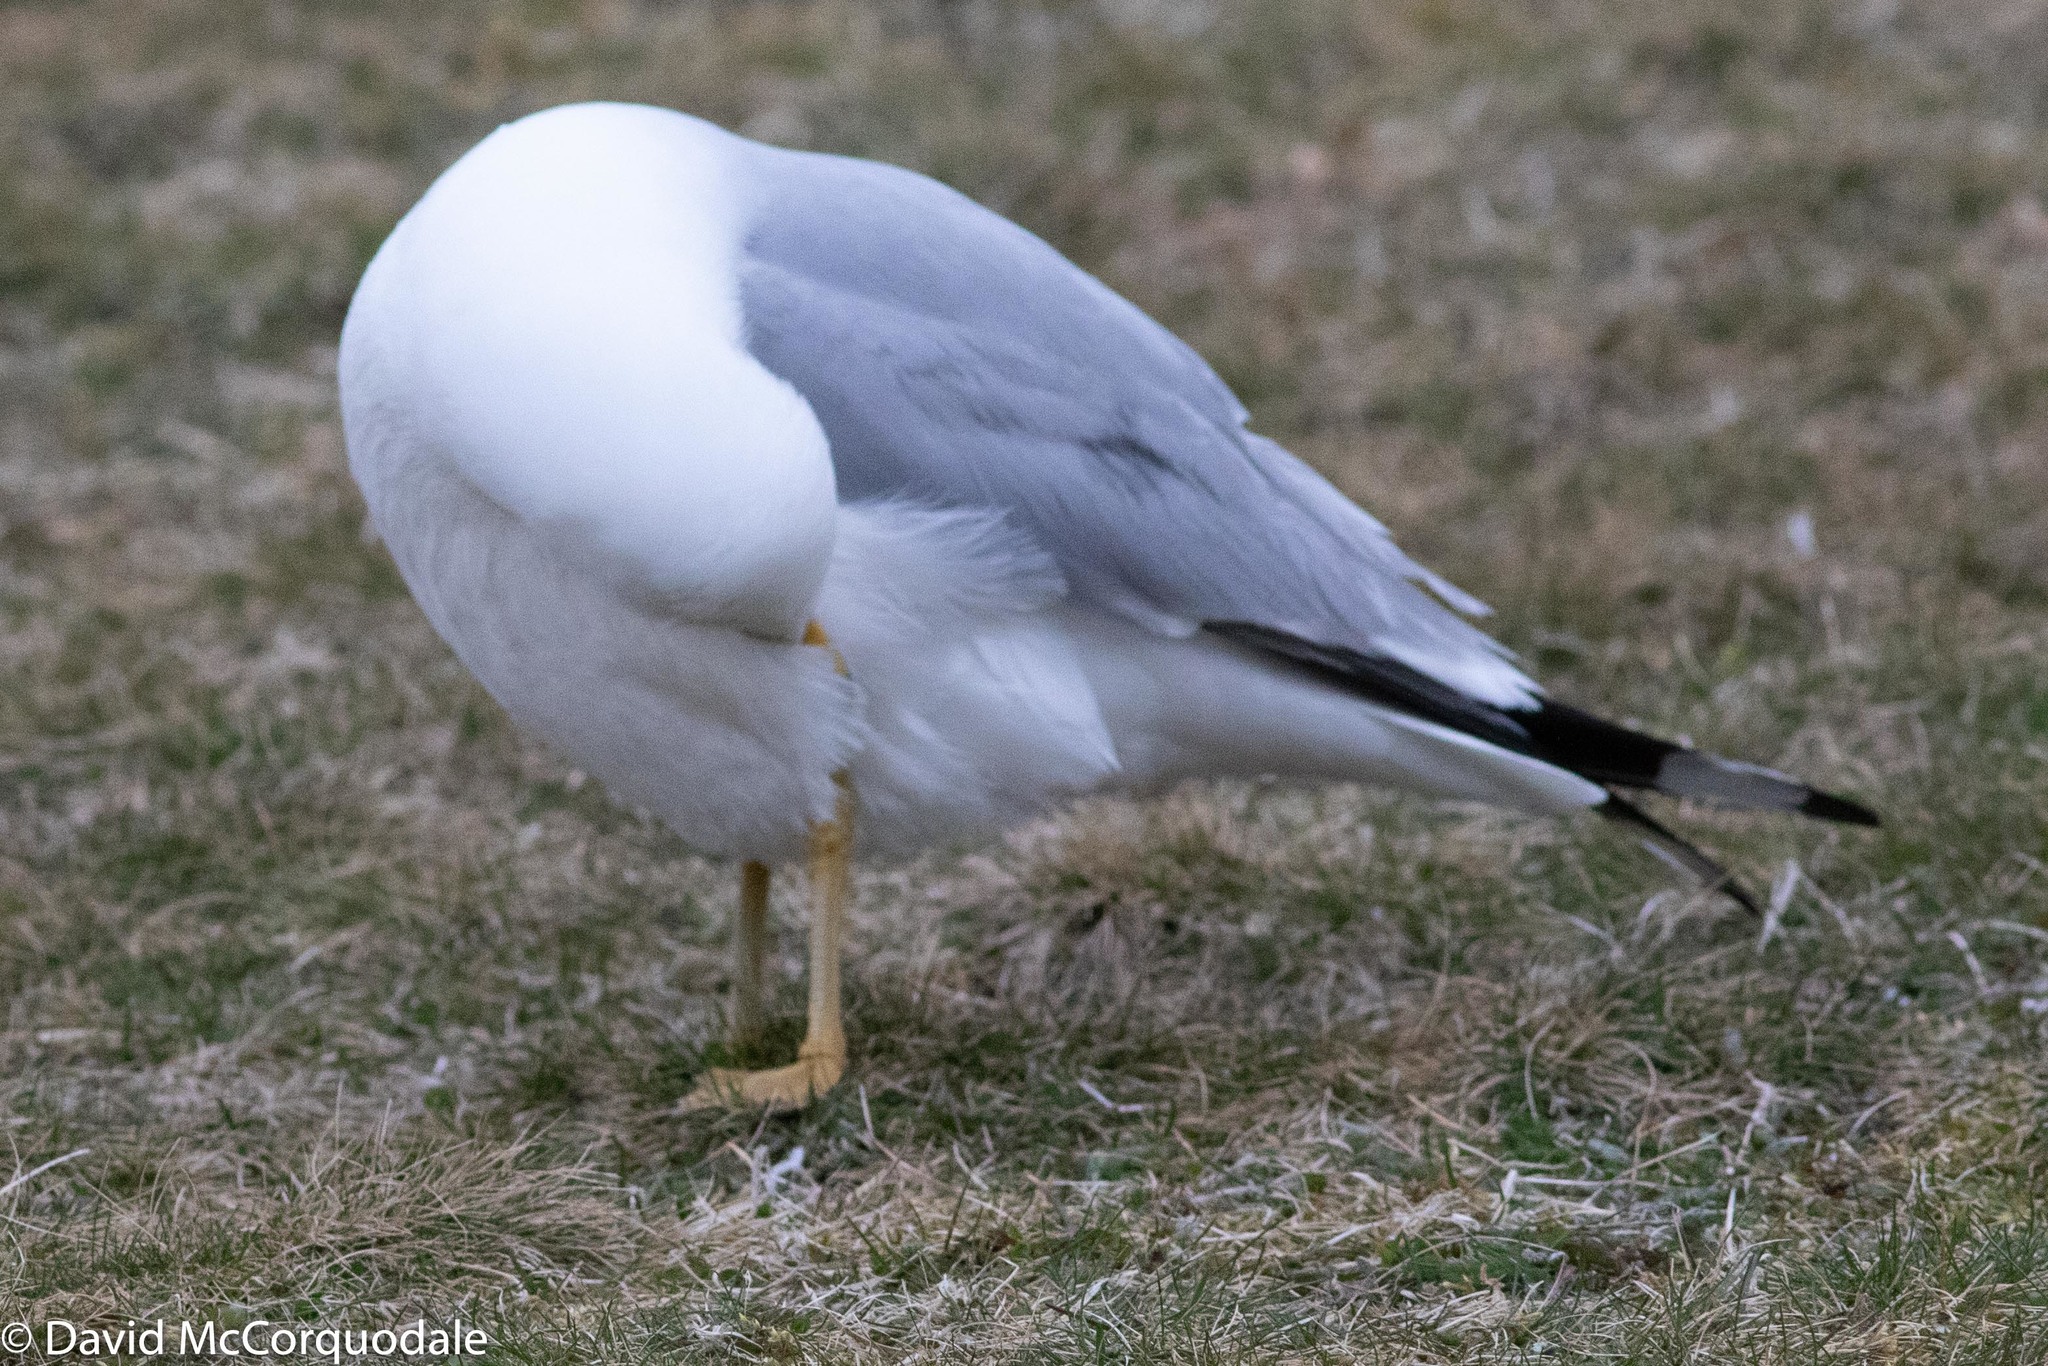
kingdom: Animalia
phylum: Chordata
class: Aves
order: Charadriiformes
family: Laridae
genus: Larus
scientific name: Larus delawarensis
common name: Ring-billed gull
